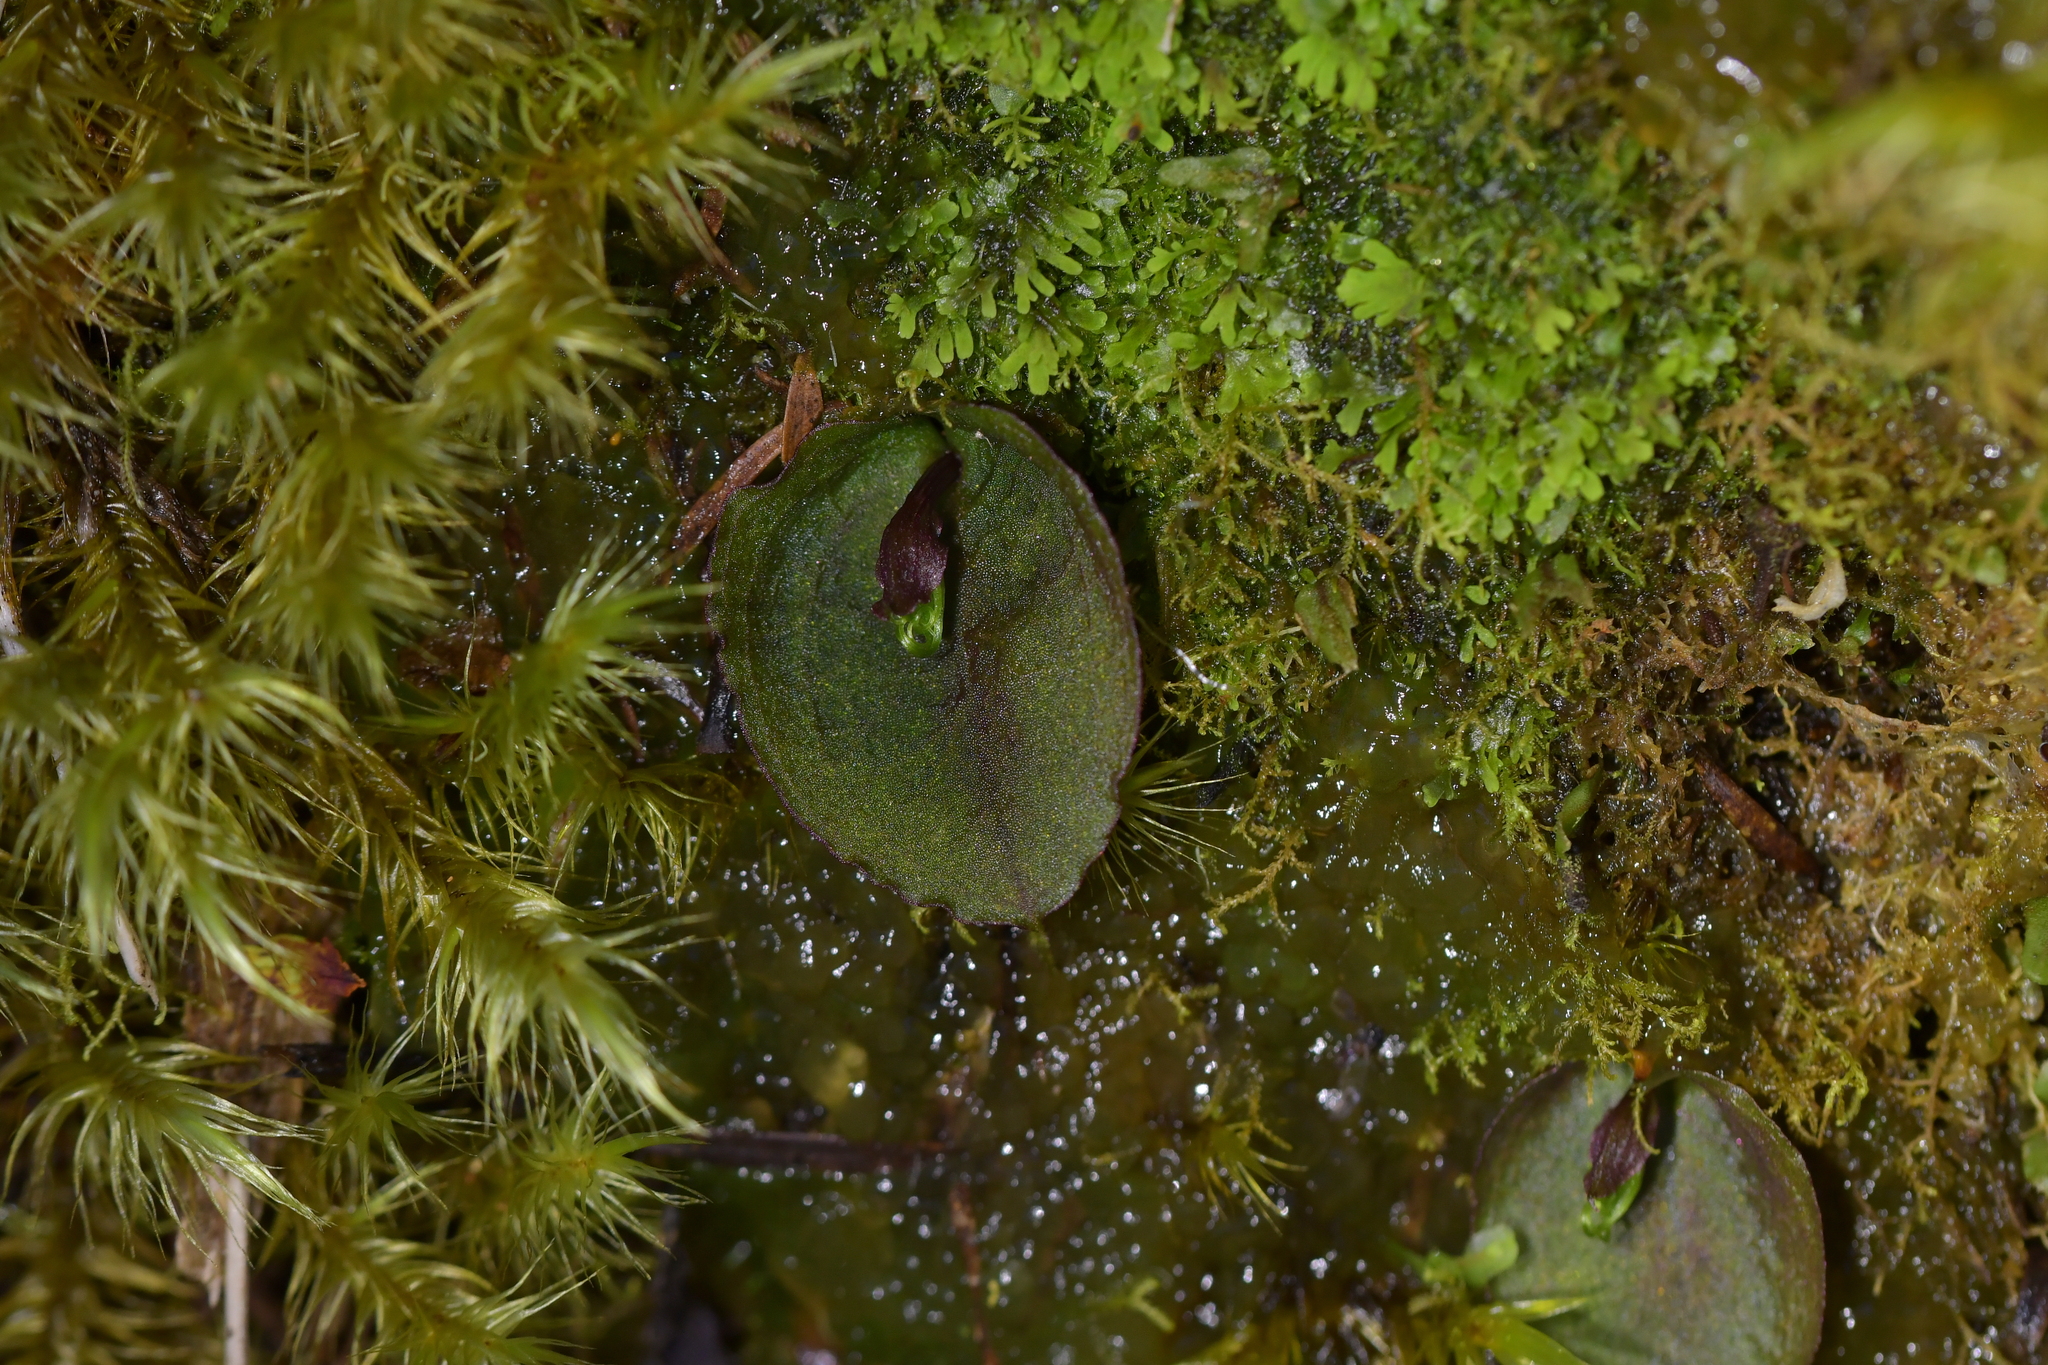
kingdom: Plantae
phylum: Tracheophyta
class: Liliopsida
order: Asparagales
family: Orchidaceae
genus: Corybas
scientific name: Corybas oblongus
